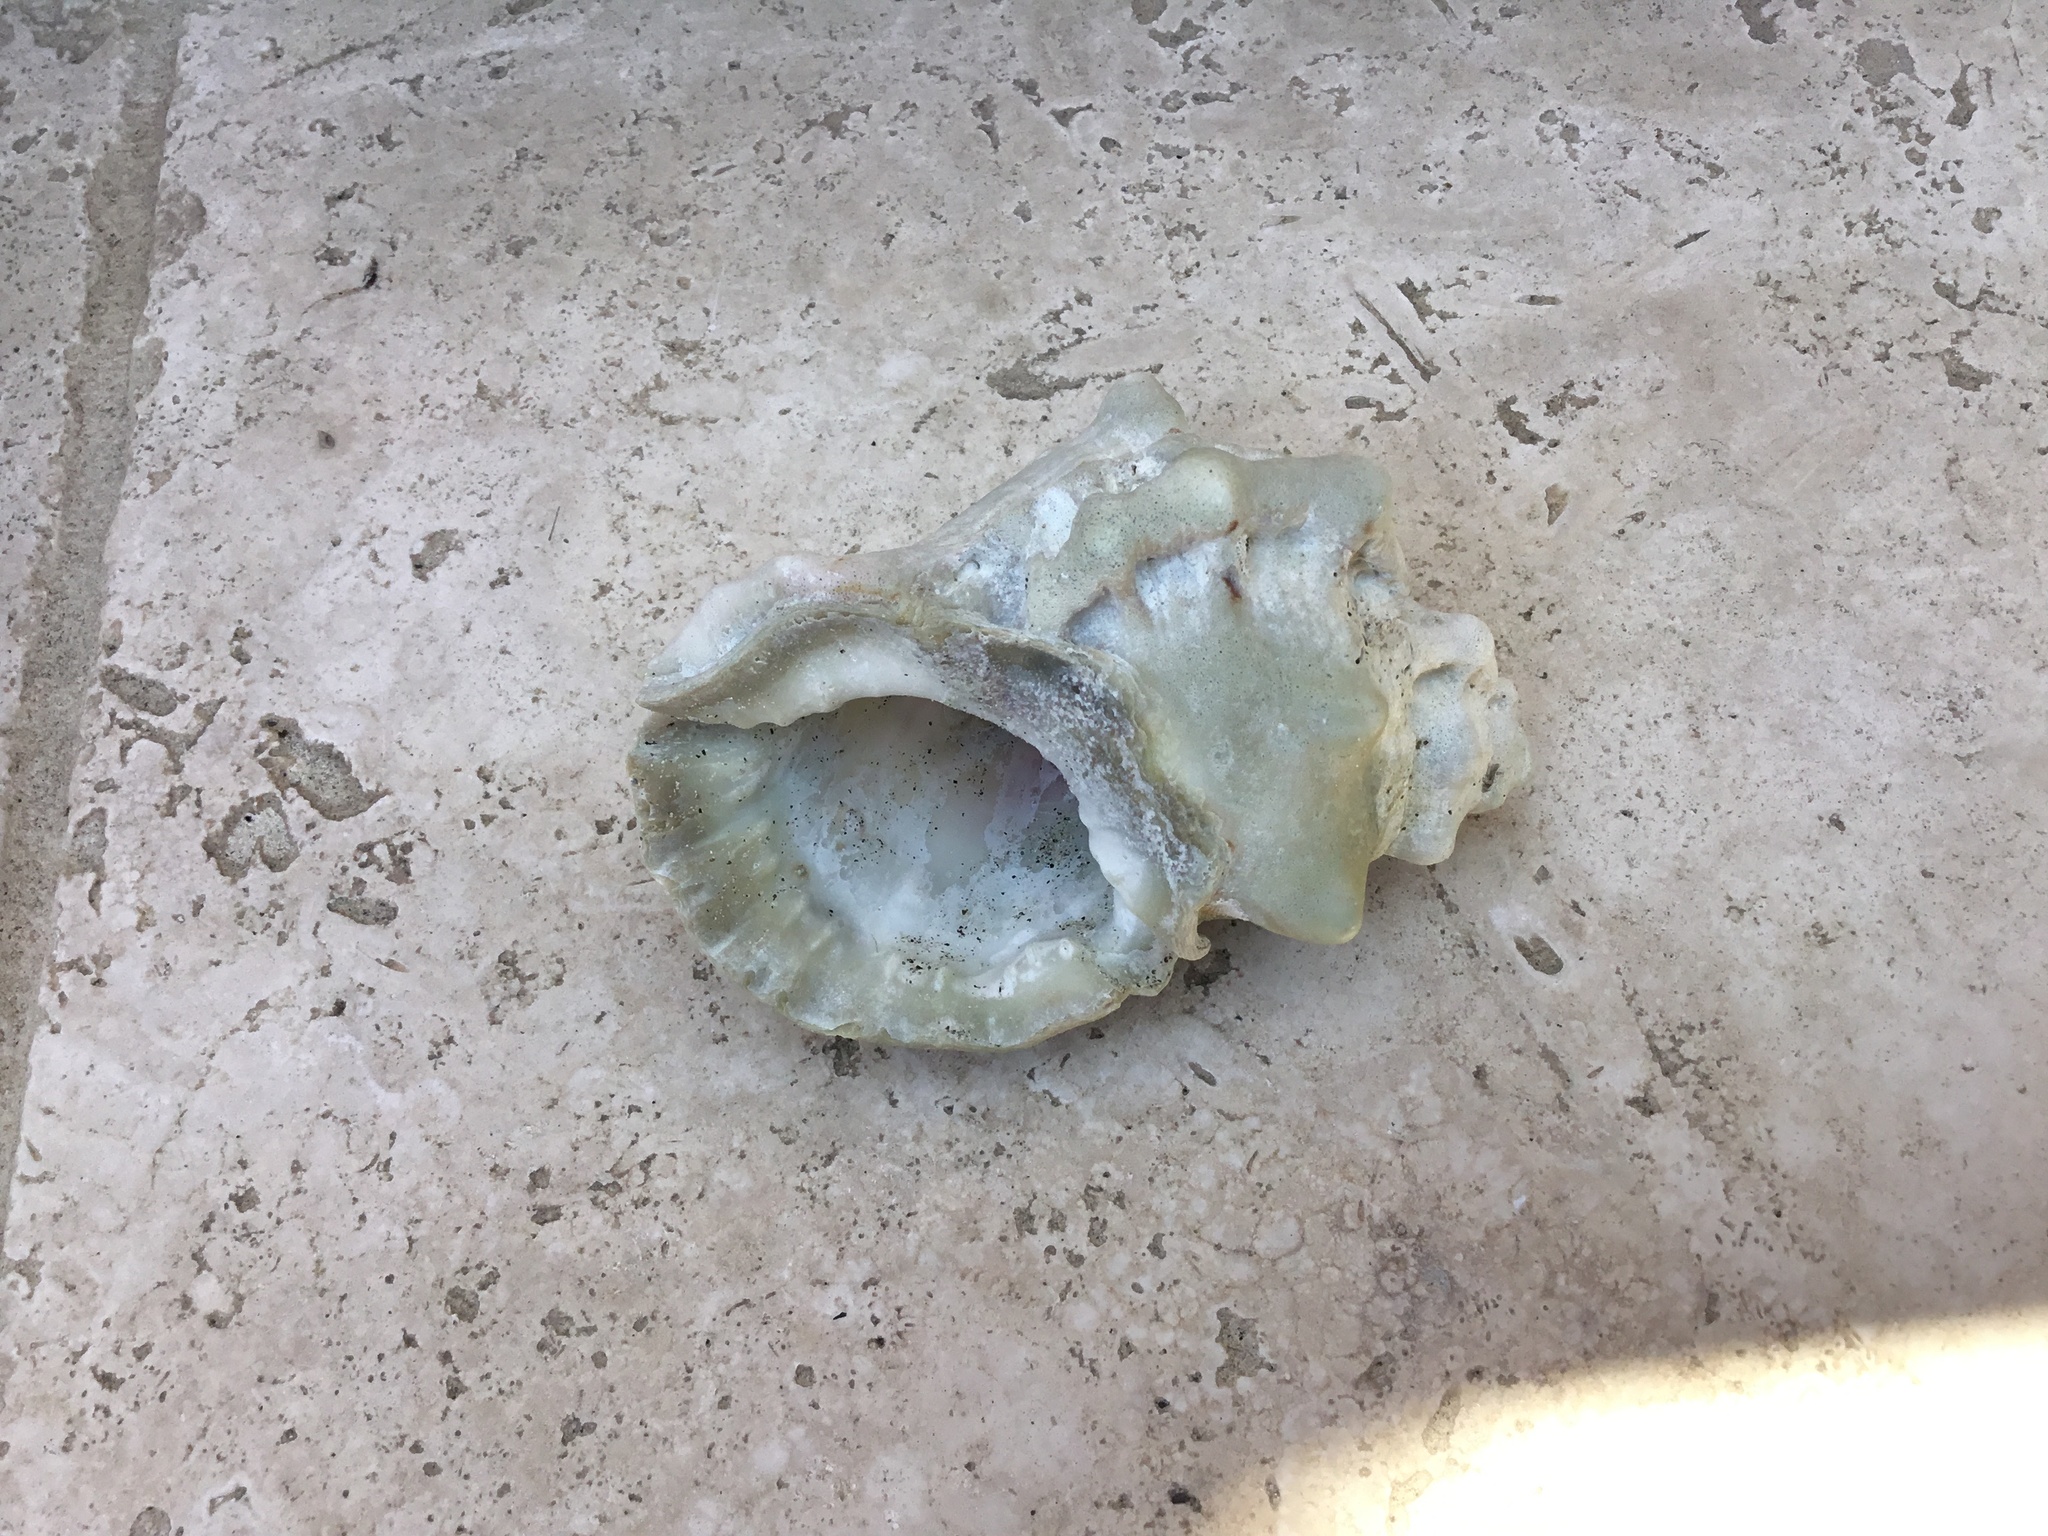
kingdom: Animalia
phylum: Mollusca
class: Gastropoda
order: Littorinimorpha
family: Bursidae
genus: Crossata
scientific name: Crossata californica
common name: California frogsnail
